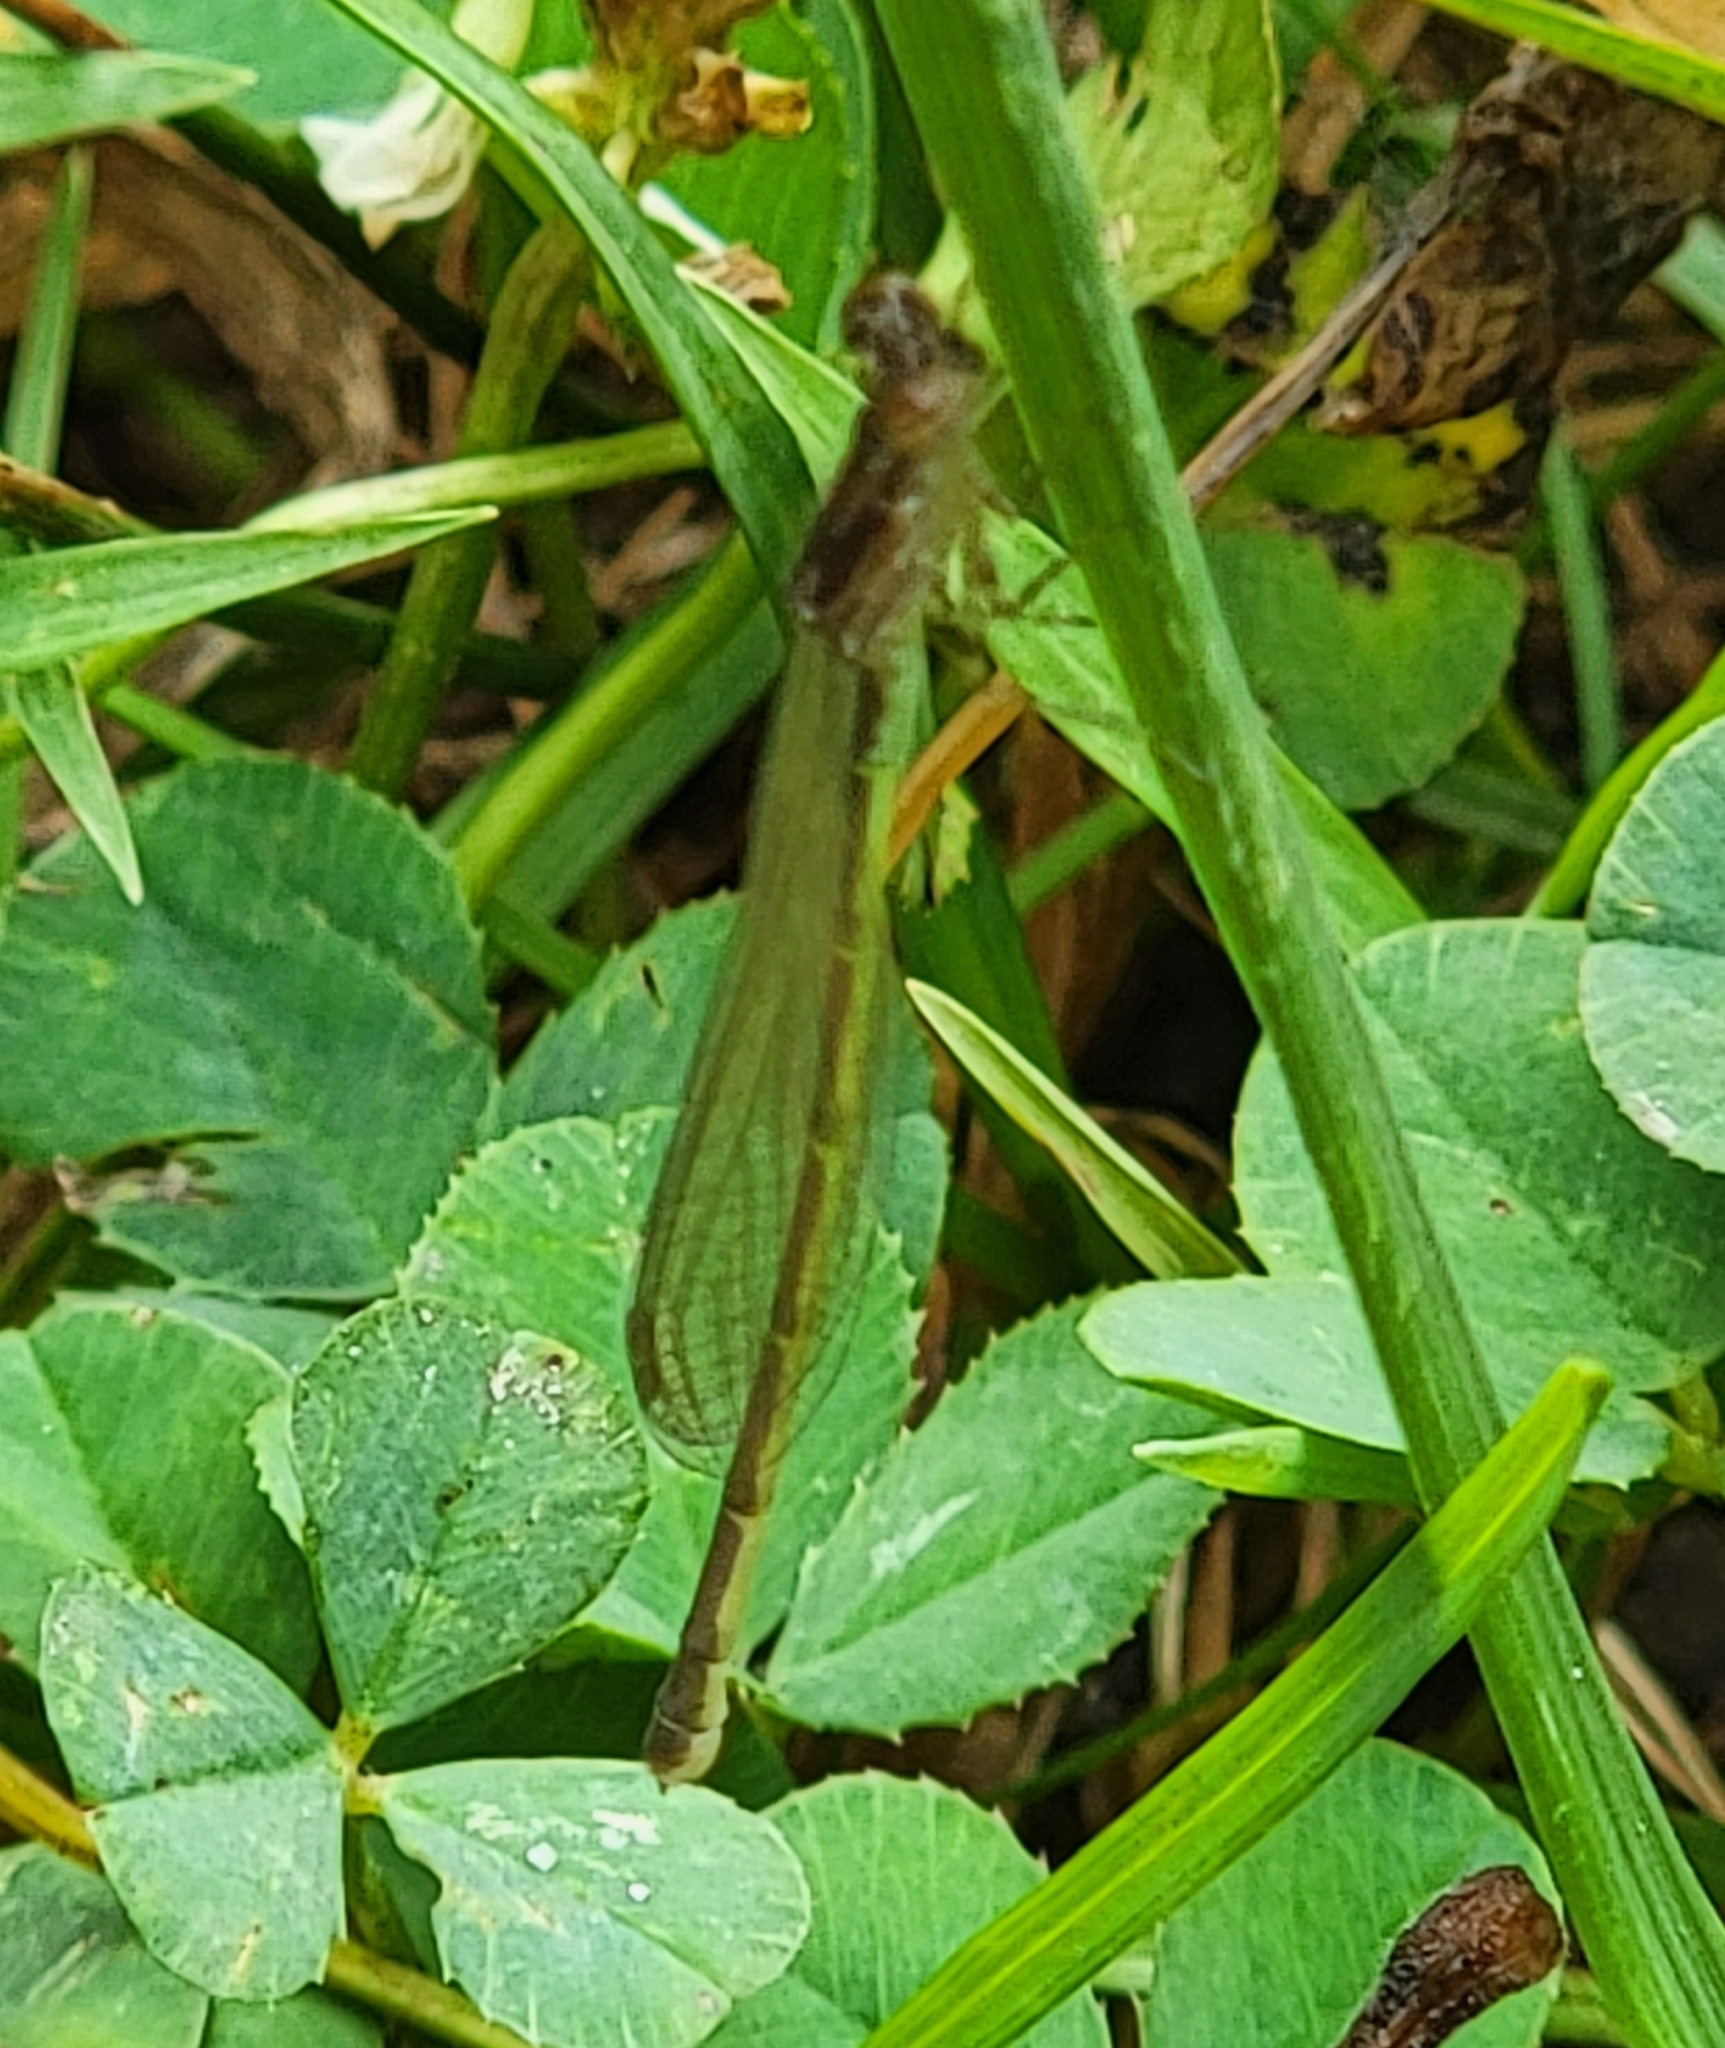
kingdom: Animalia
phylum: Arthropoda
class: Insecta
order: Odonata
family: Coenagrionidae
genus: Ischnura
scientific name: Ischnura posita
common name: Fragile forktail
